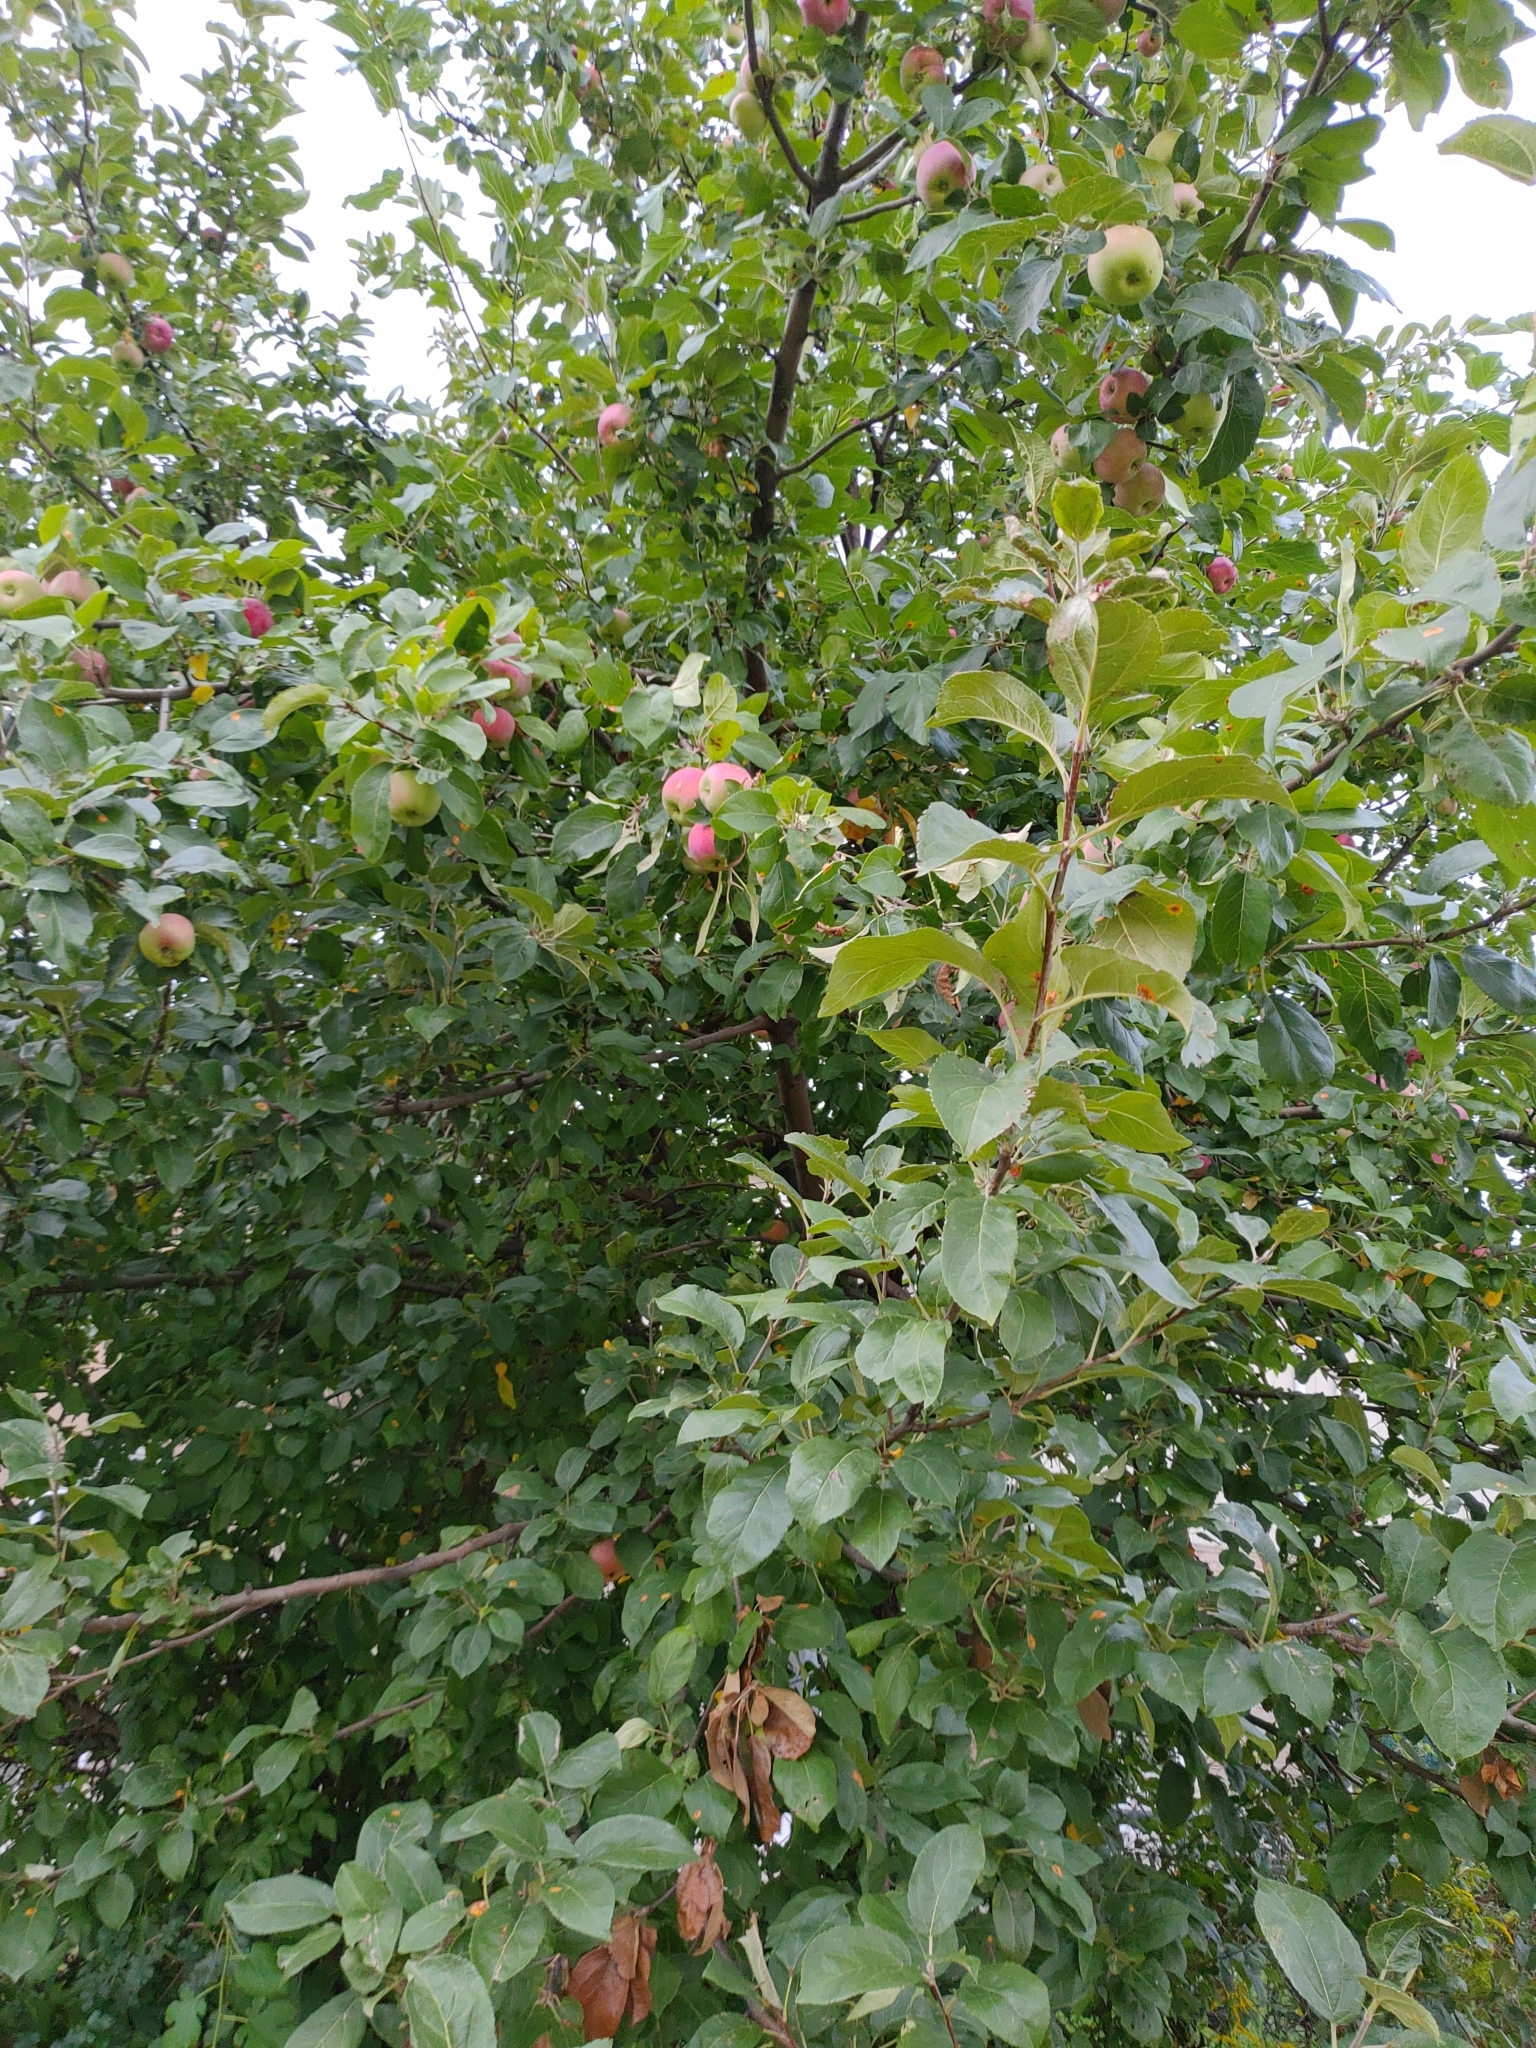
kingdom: Plantae
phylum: Tracheophyta
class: Magnoliopsida
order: Rosales
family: Rosaceae
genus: Malus
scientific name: Malus domestica
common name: Apple
